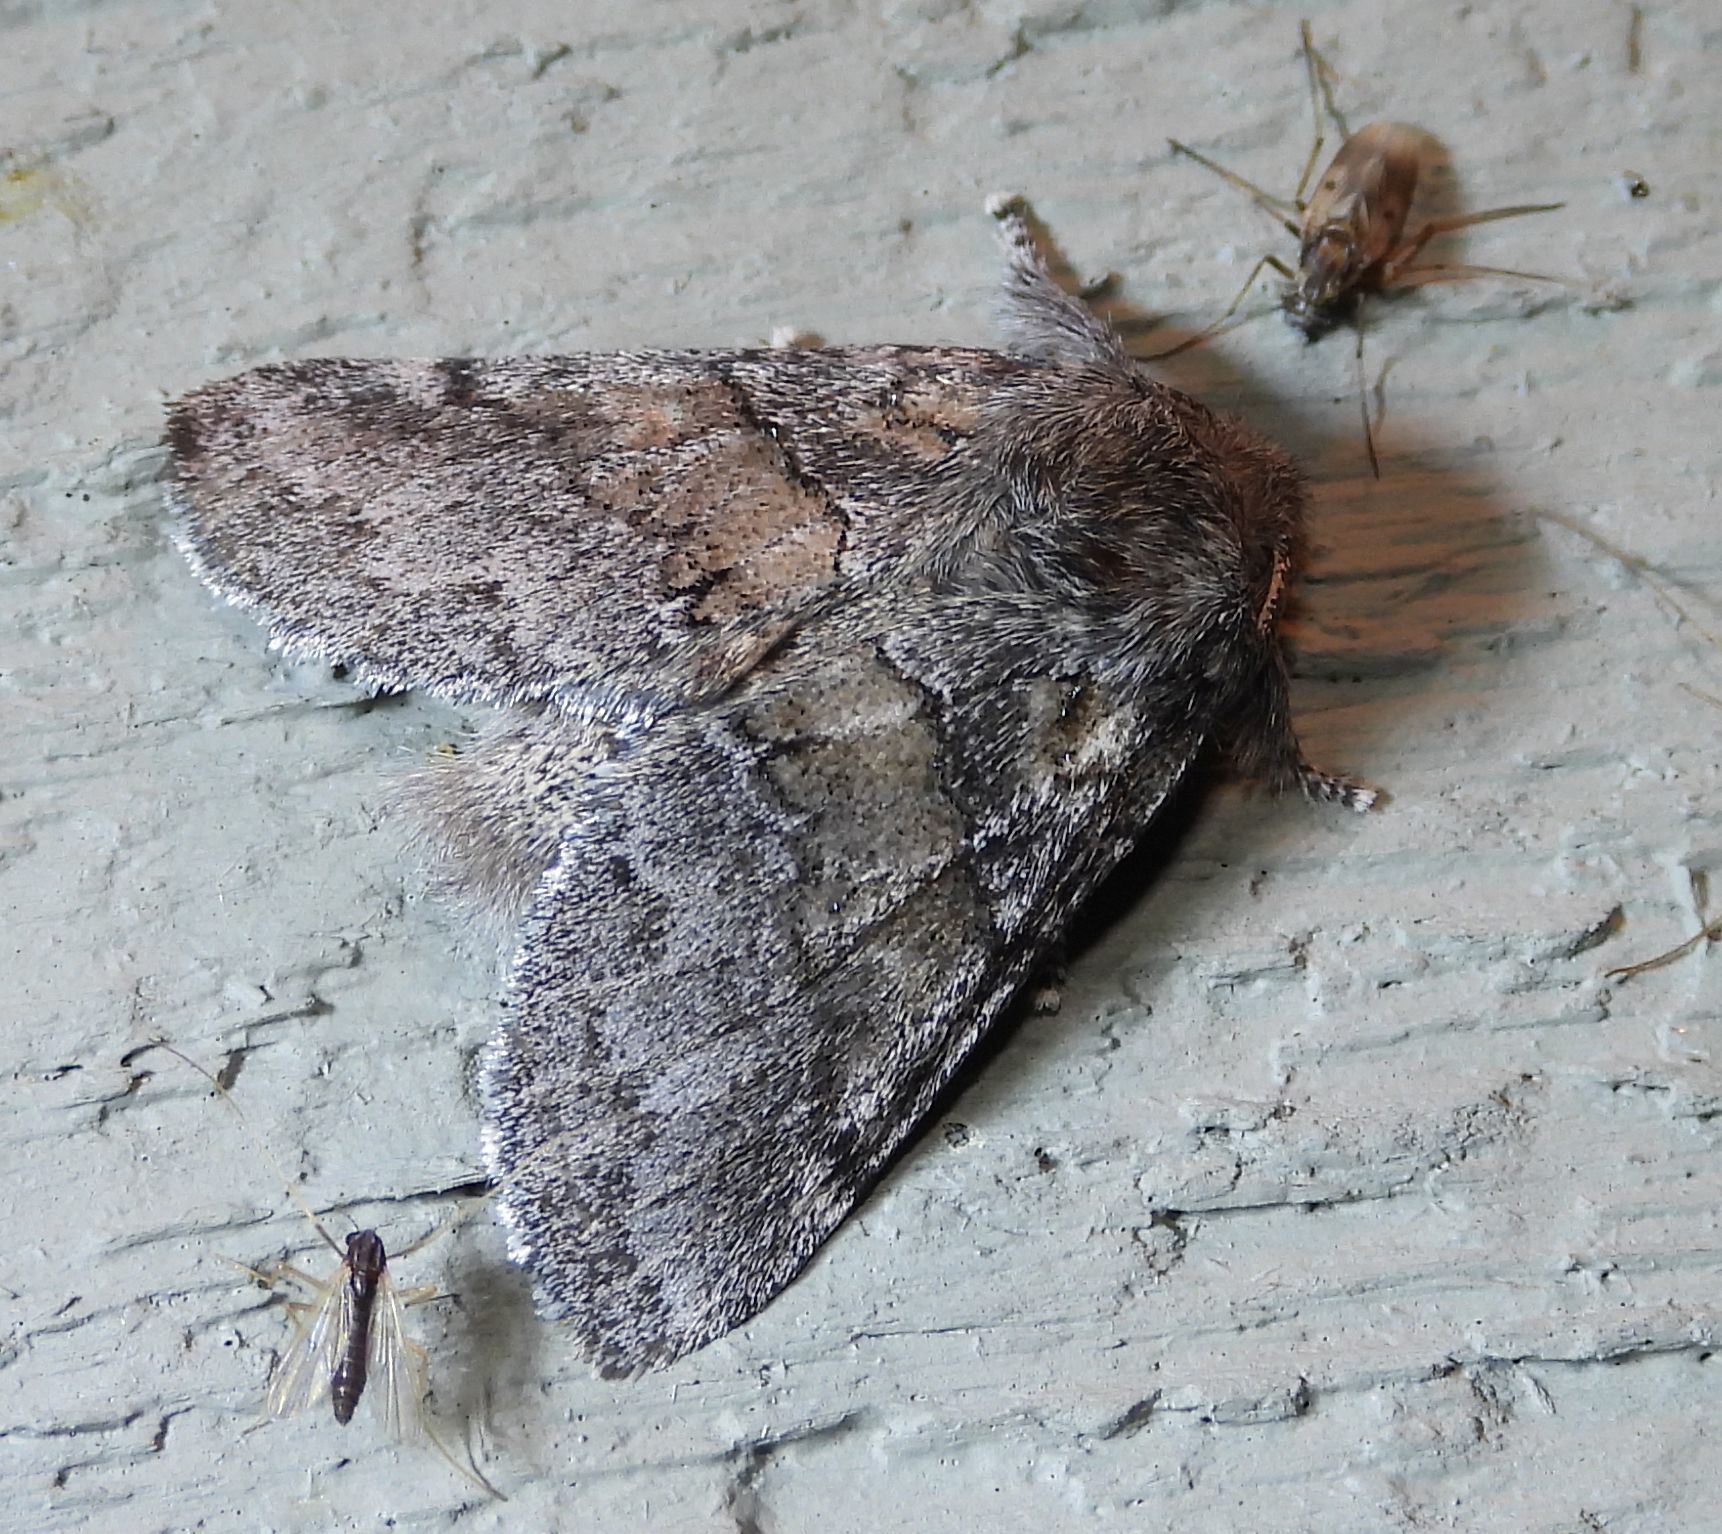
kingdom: Animalia
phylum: Arthropoda
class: Insecta
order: Lepidoptera
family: Notodontidae
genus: Gluphisia
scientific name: Gluphisia septentrionis
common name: Common gluphisia
